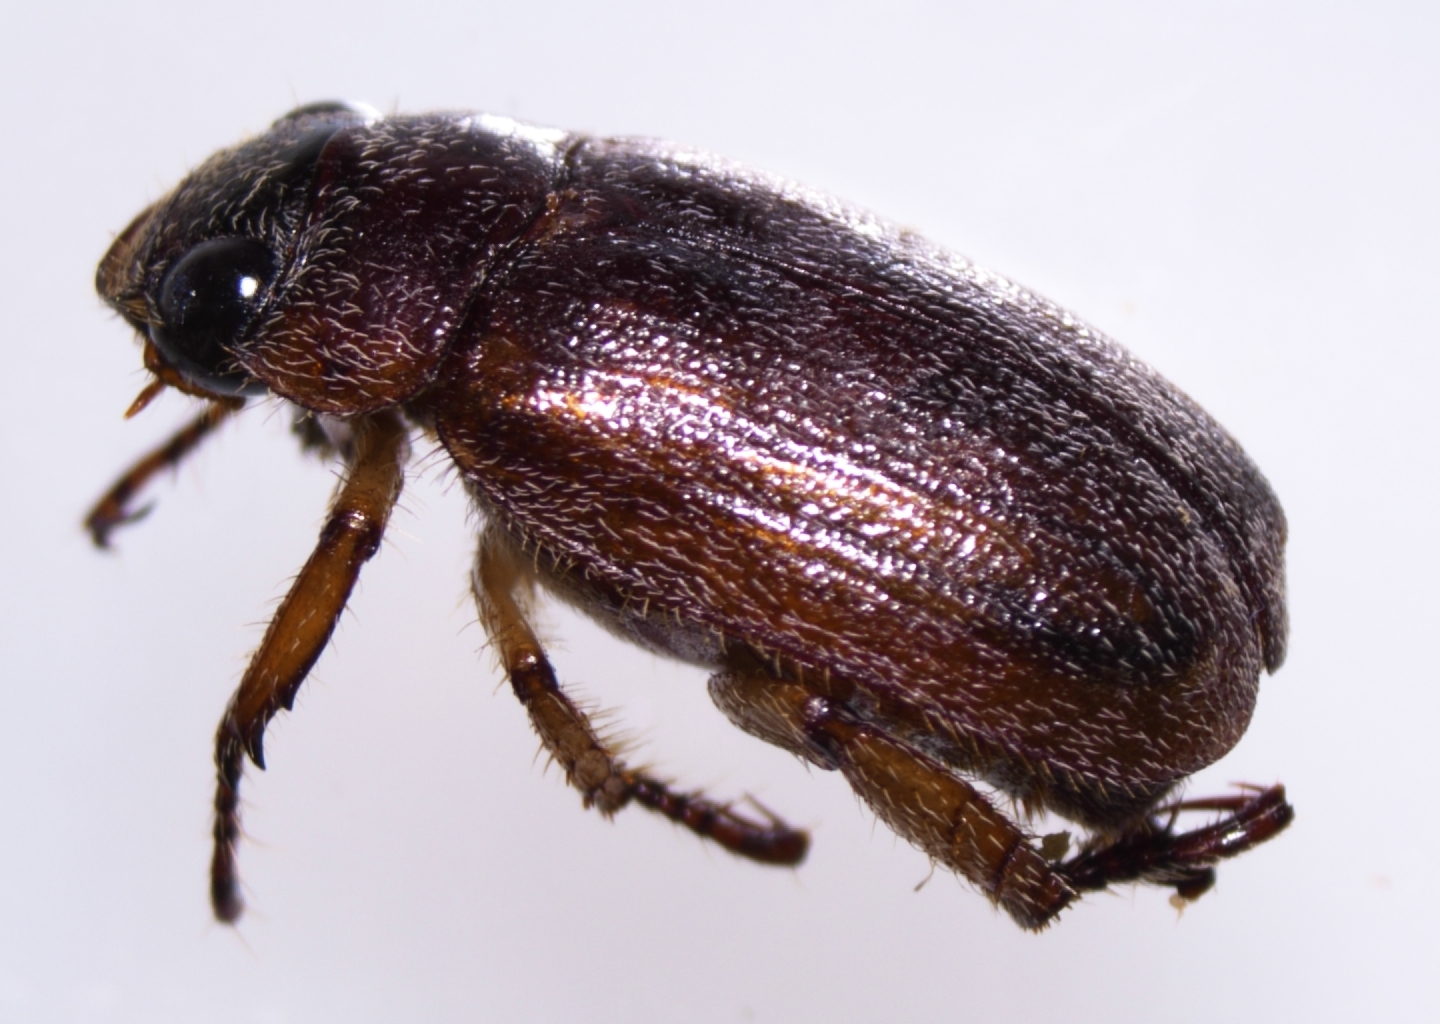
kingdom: Animalia
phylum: Arthropoda
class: Insecta
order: Coleoptera
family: Scarabaeidae
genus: Adoretus
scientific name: Adoretus sinicus
